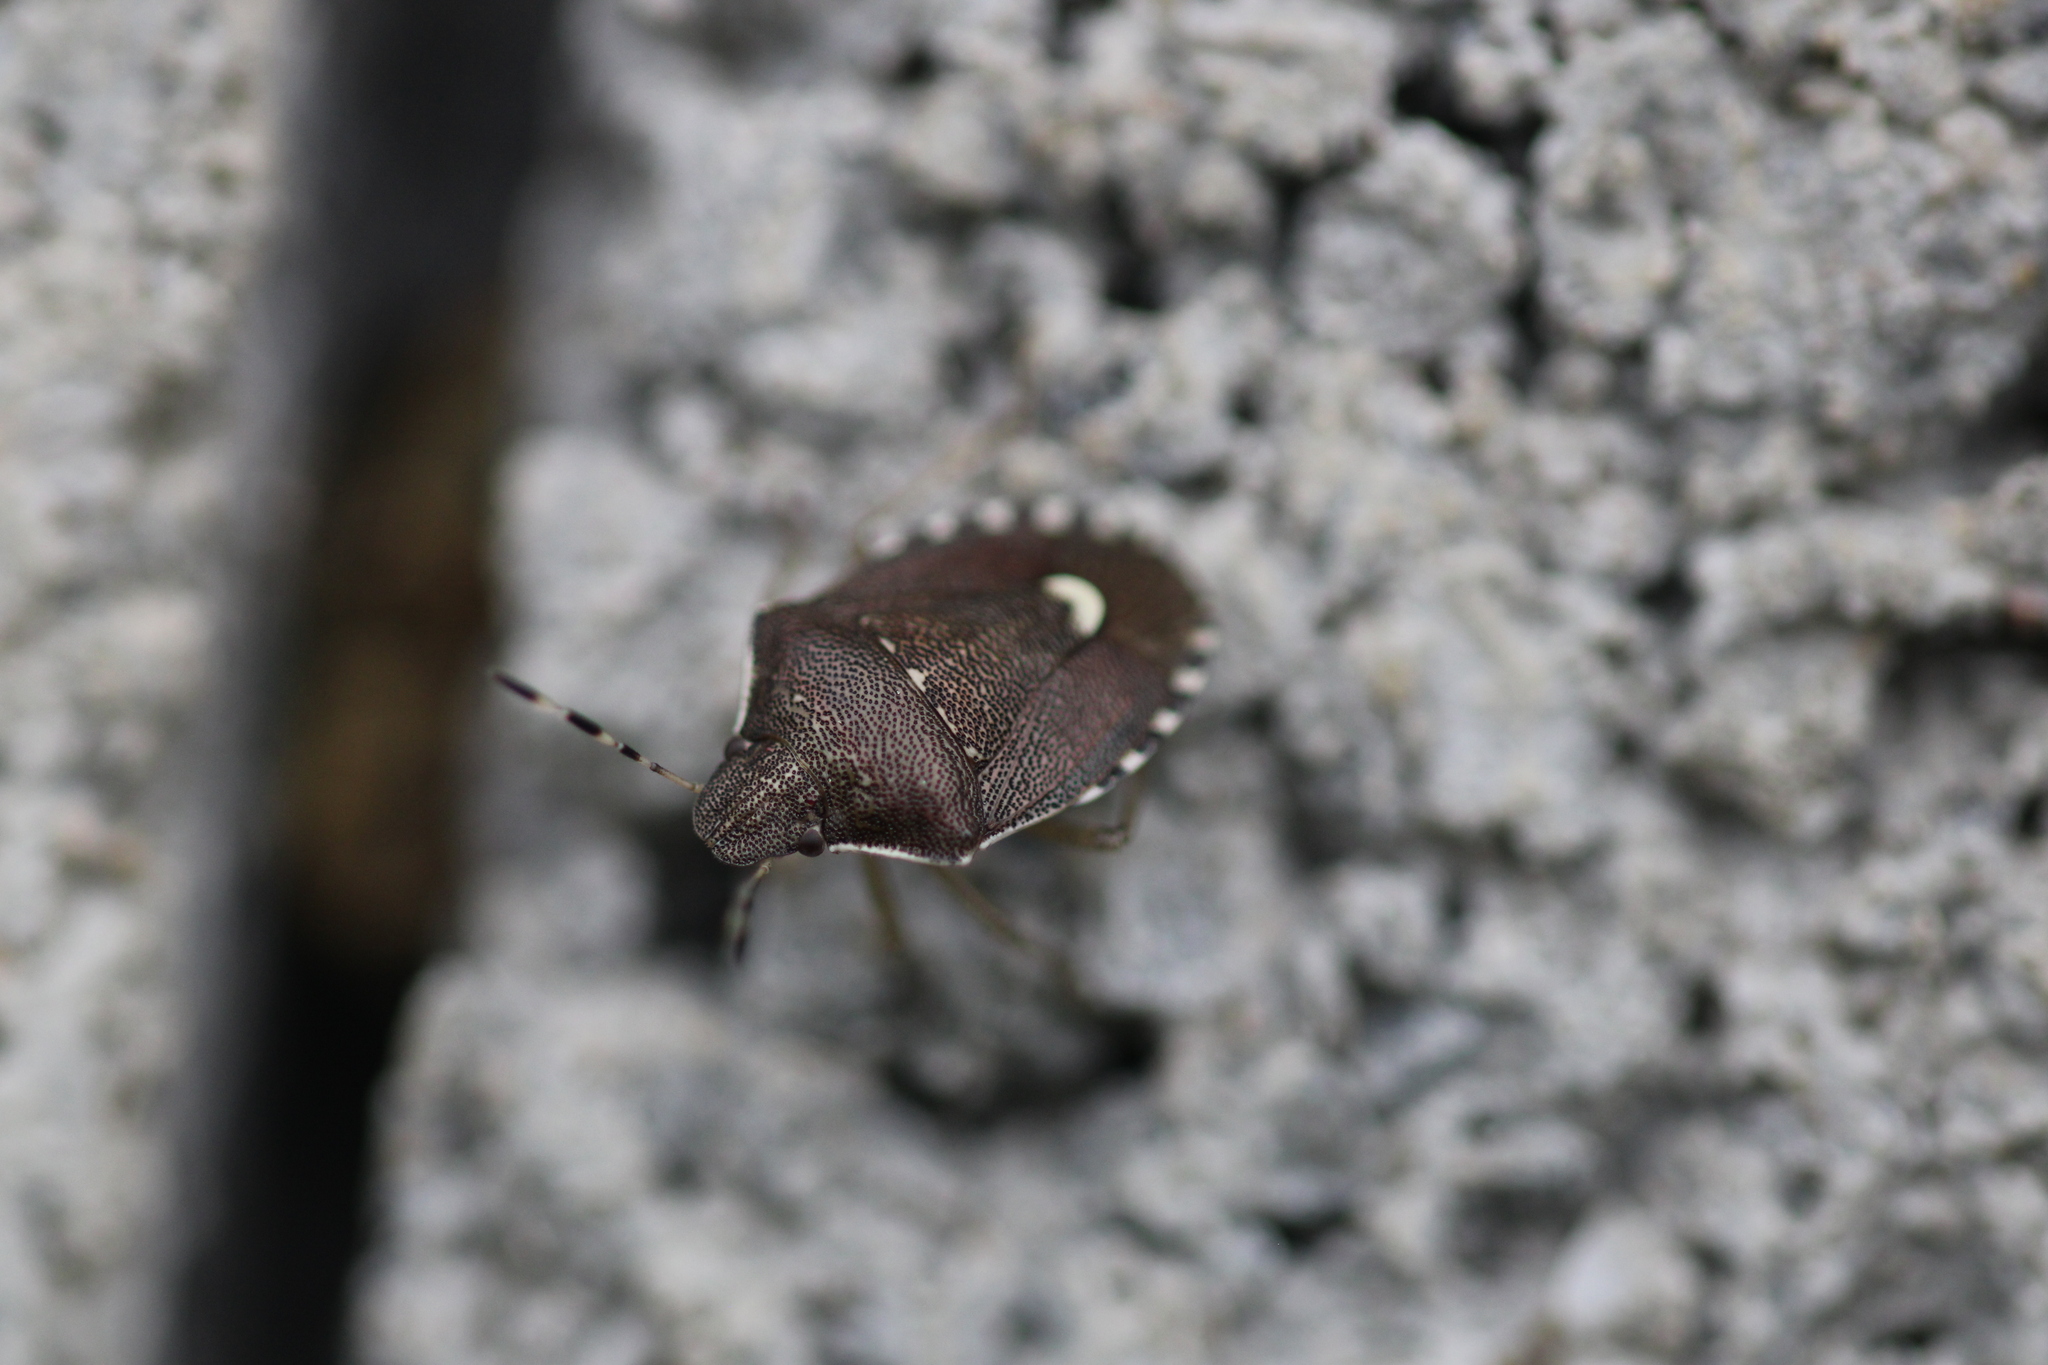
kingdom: Animalia
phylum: Arthropoda
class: Insecta
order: Hemiptera
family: Pentatomidae
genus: Holcostethus
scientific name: Holcostethus sphacelatus
